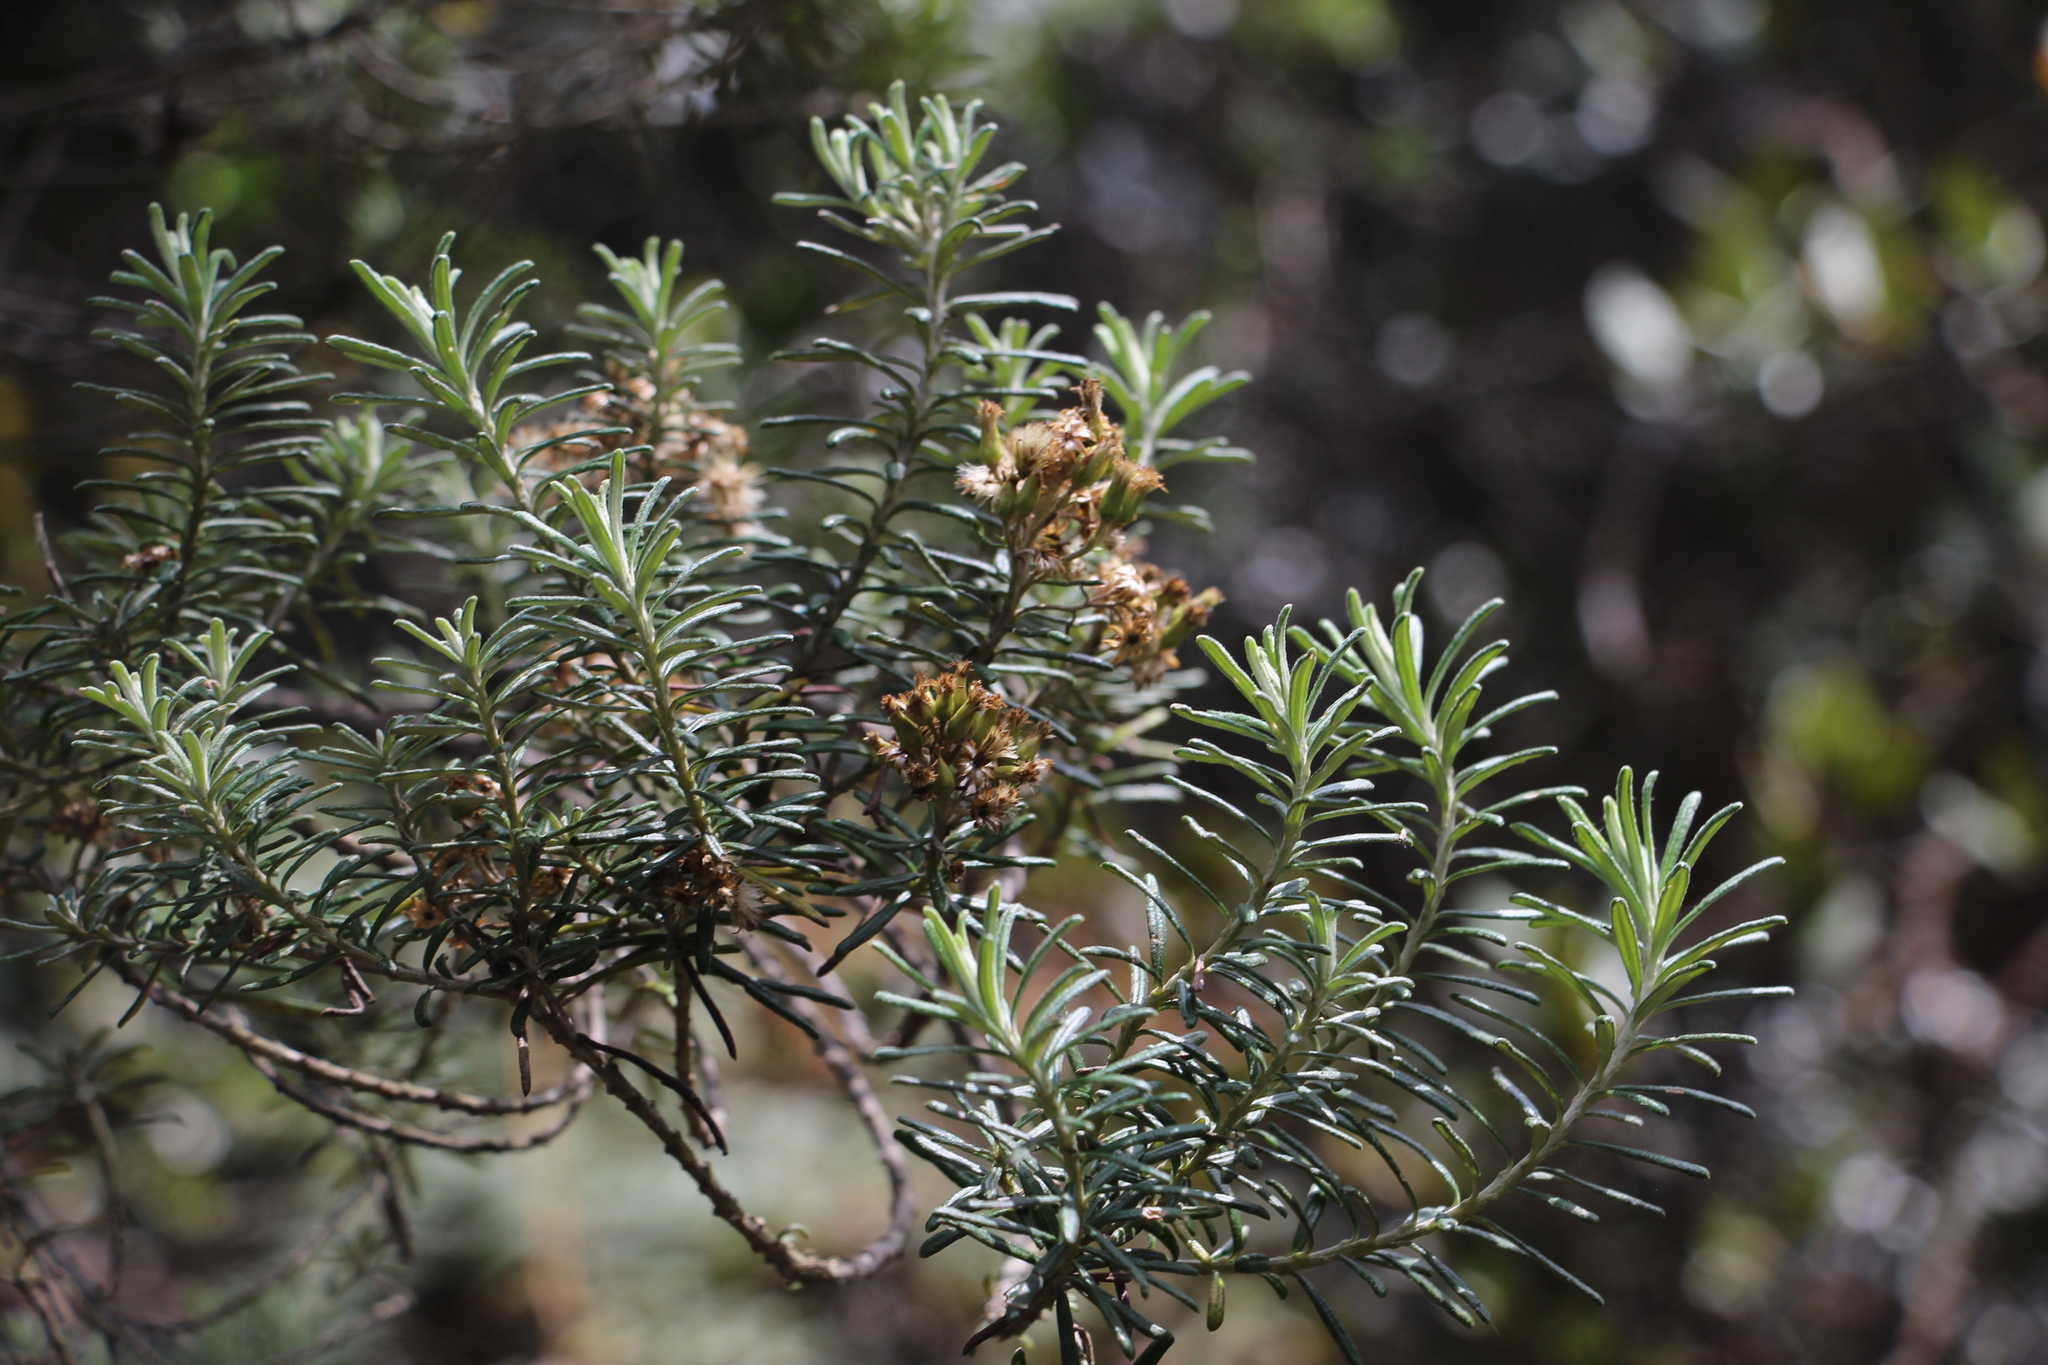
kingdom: Plantae
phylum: Tracheophyta
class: Magnoliopsida
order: Asterales
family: Asteraceae
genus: Linochilus
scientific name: Linochilus rosmarinifolius
